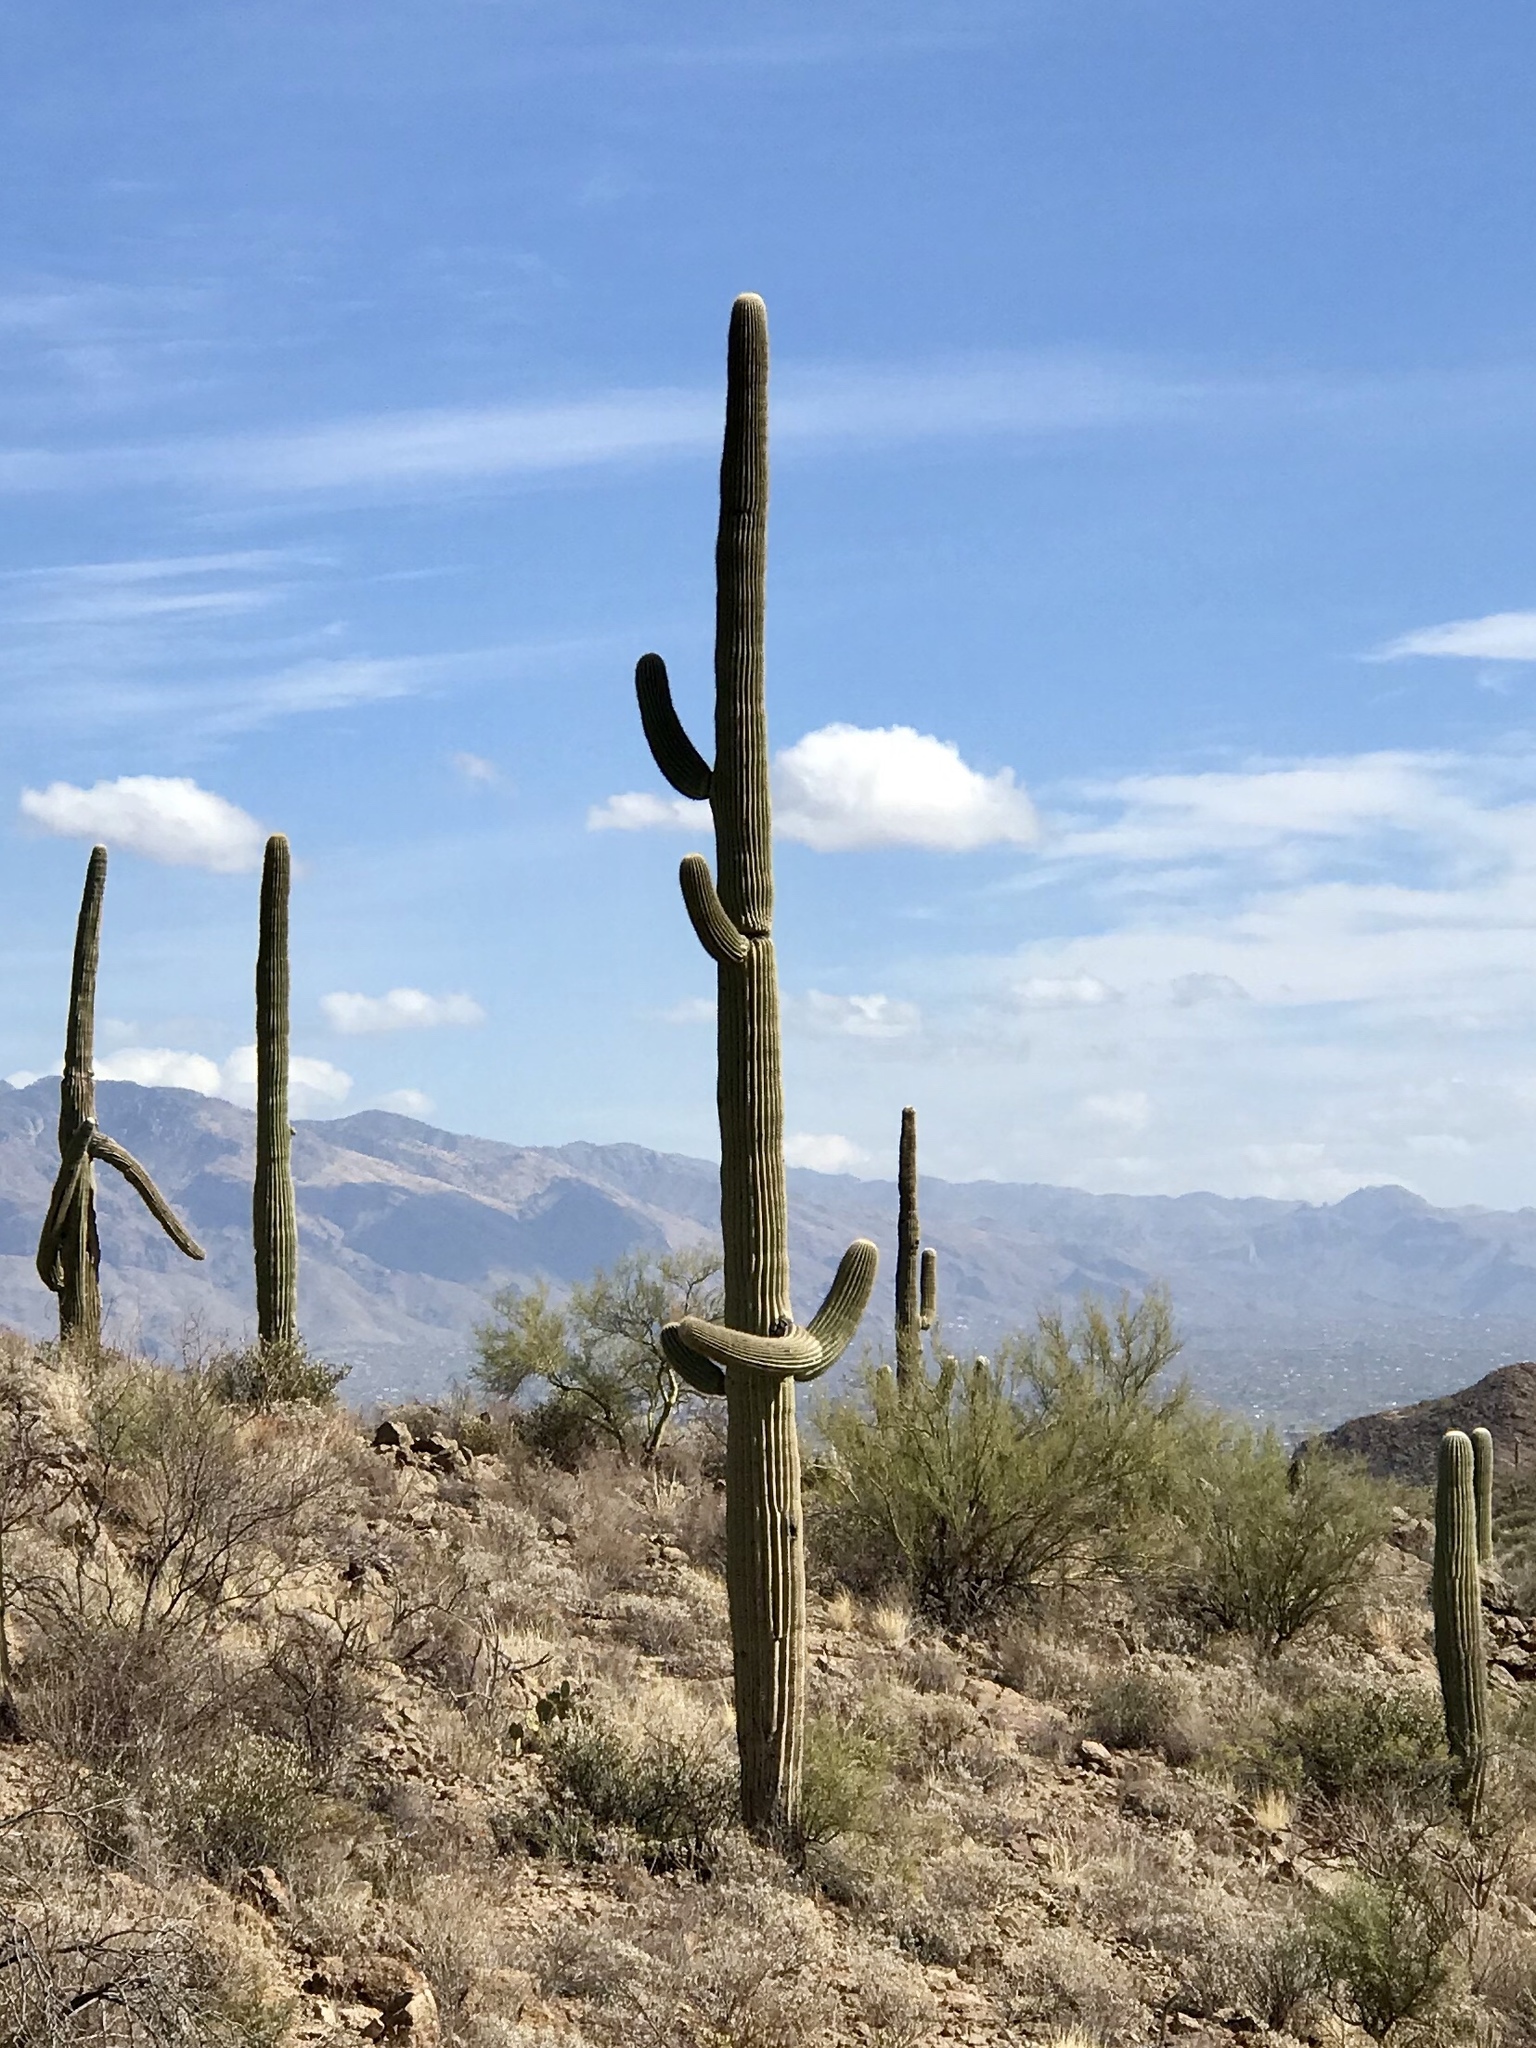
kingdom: Plantae
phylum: Tracheophyta
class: Magnoliopsida
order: Caryophyllales
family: Cactaceae
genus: Carnegiea
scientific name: Carnegiea gigantea
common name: Saguaro
